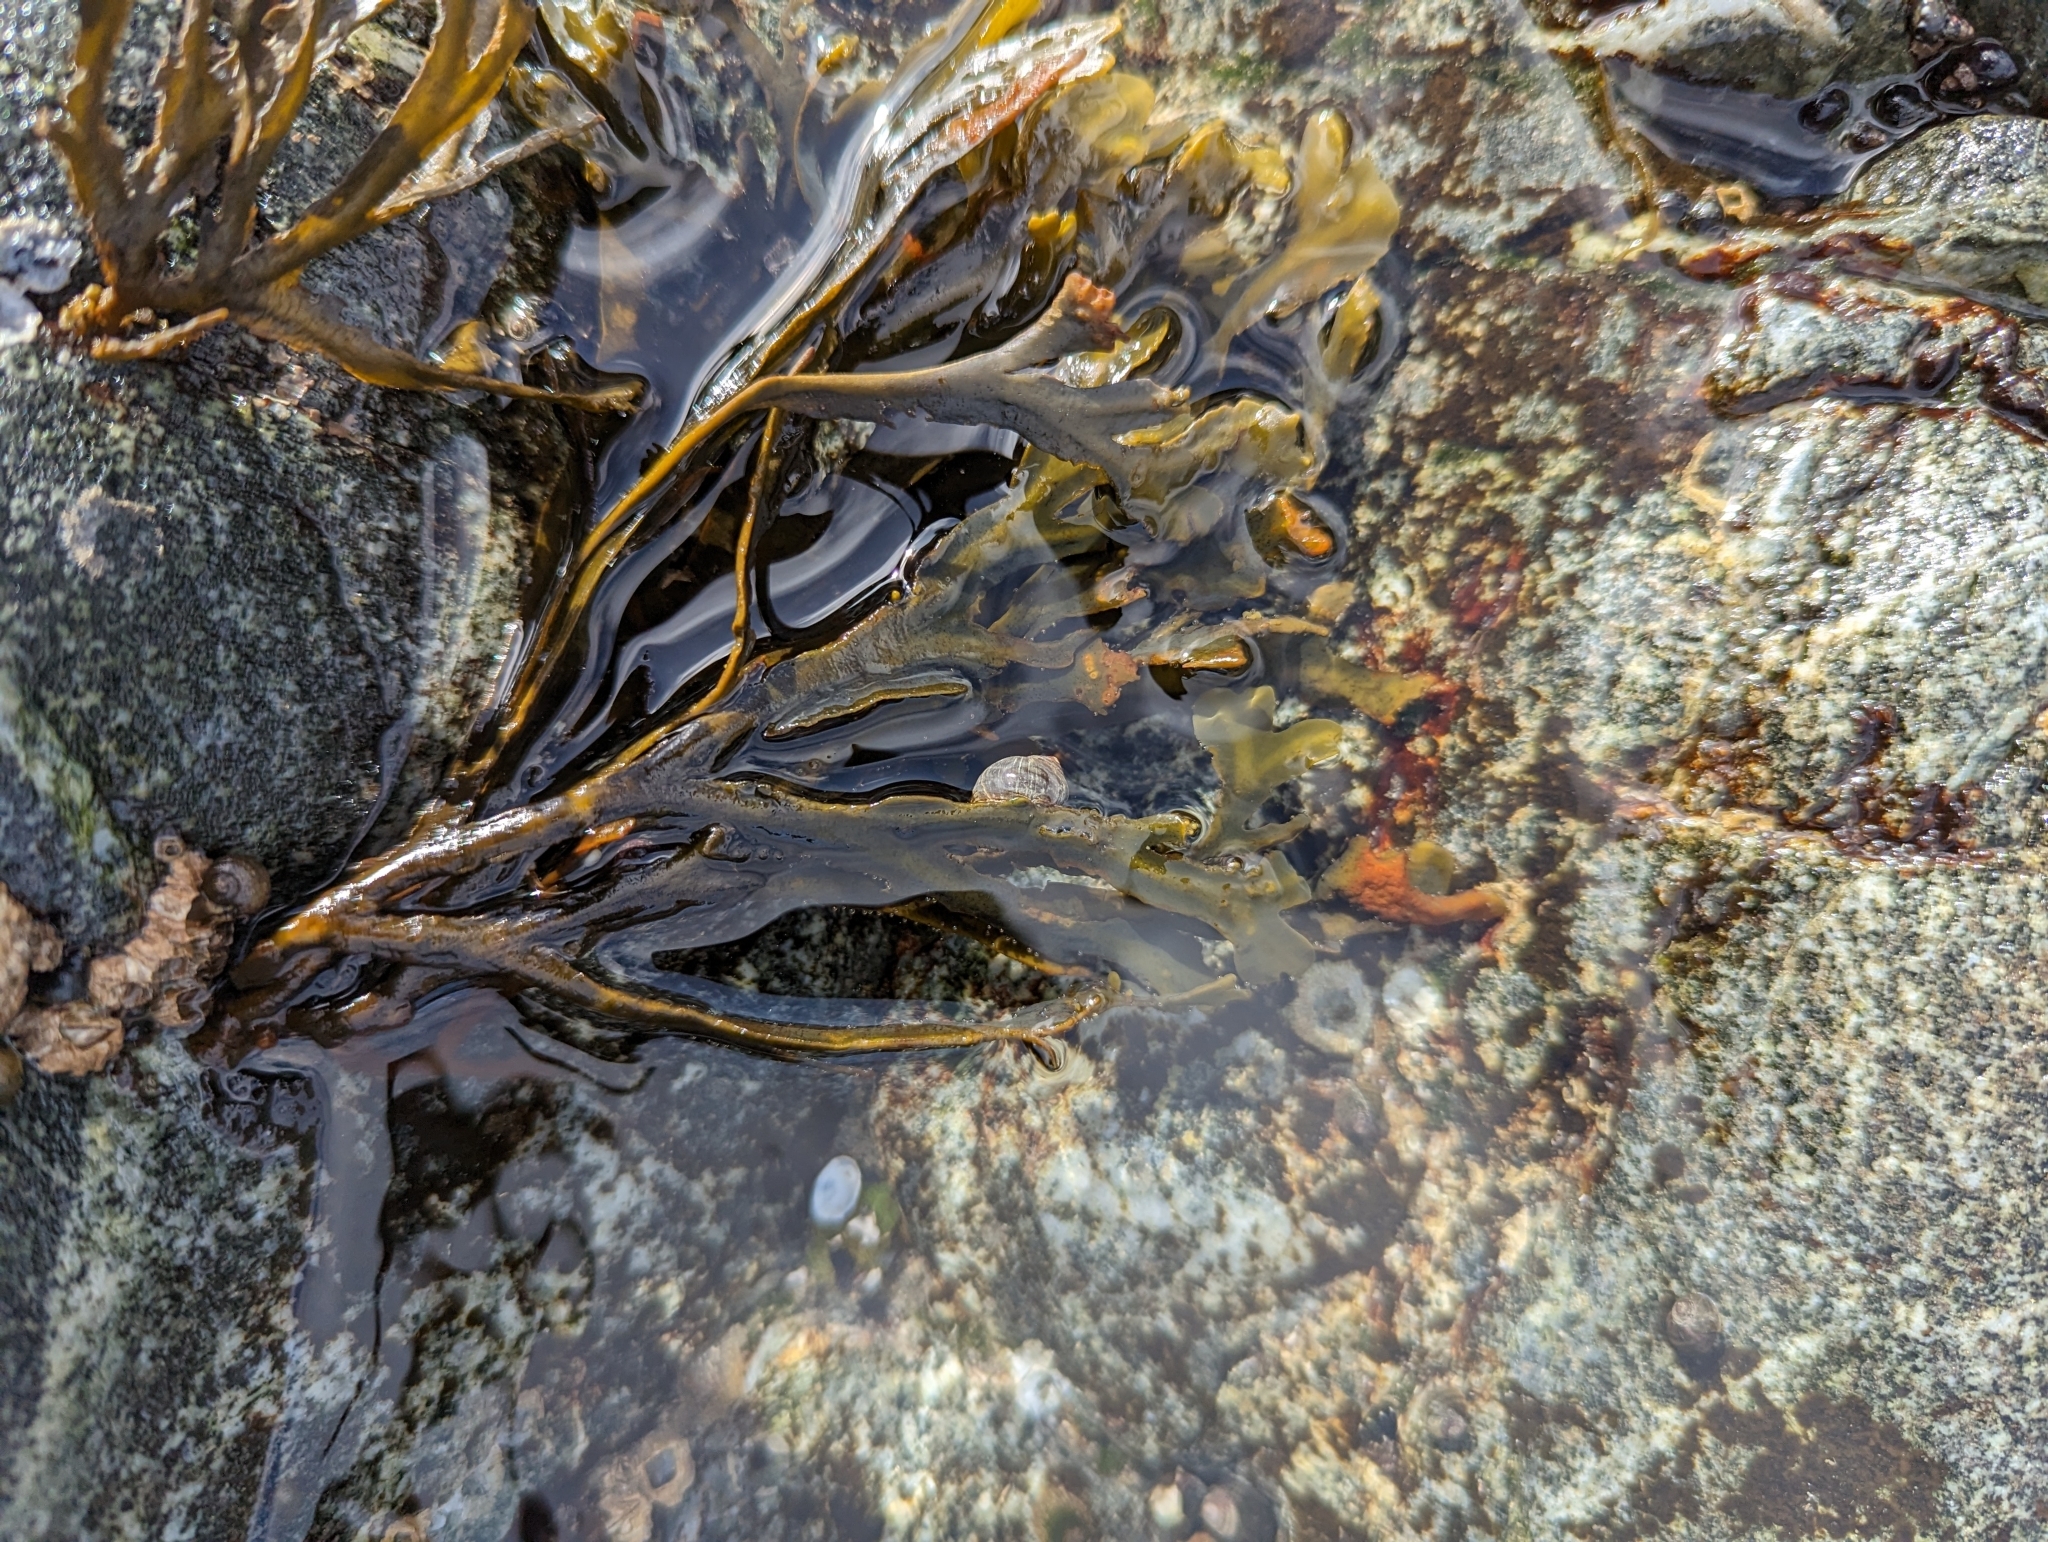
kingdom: Chromista
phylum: Ochrophyta
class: Phaeophyceae
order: Fucales
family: Fucaceae
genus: Fucus
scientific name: Fucus distichus
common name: Rockweed
